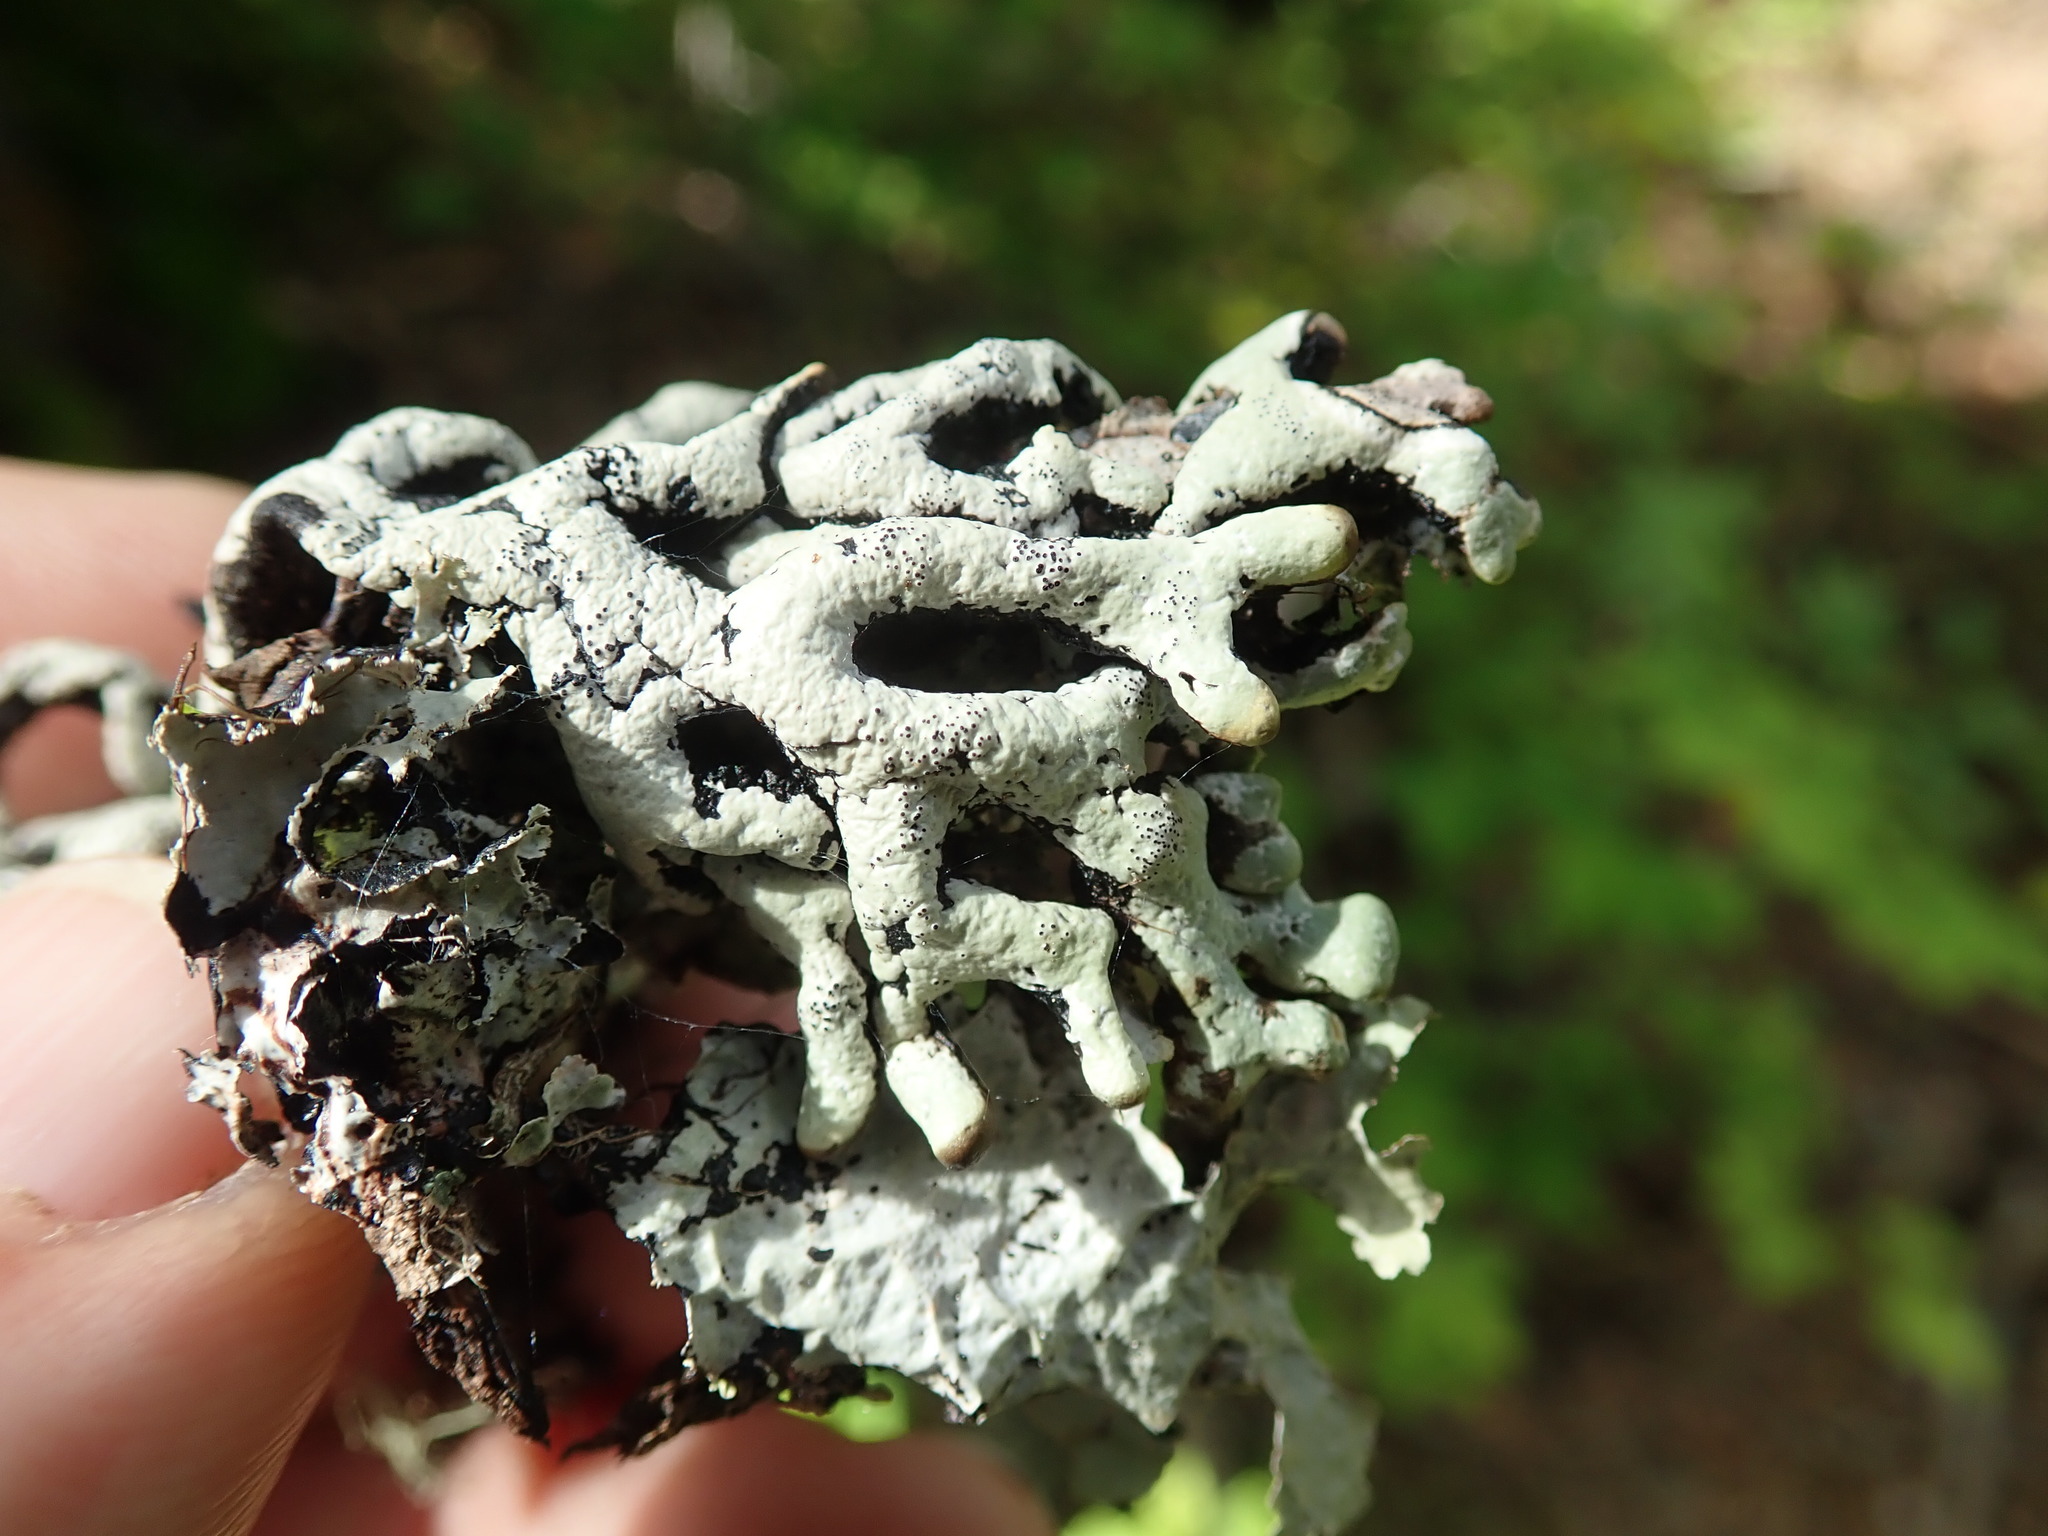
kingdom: Fungi
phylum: Ascomycota
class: Lecanoromycetes
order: Lecanorales
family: Parmeliaceae
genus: Hypogymnia
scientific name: Hypogymnia imshaugii
